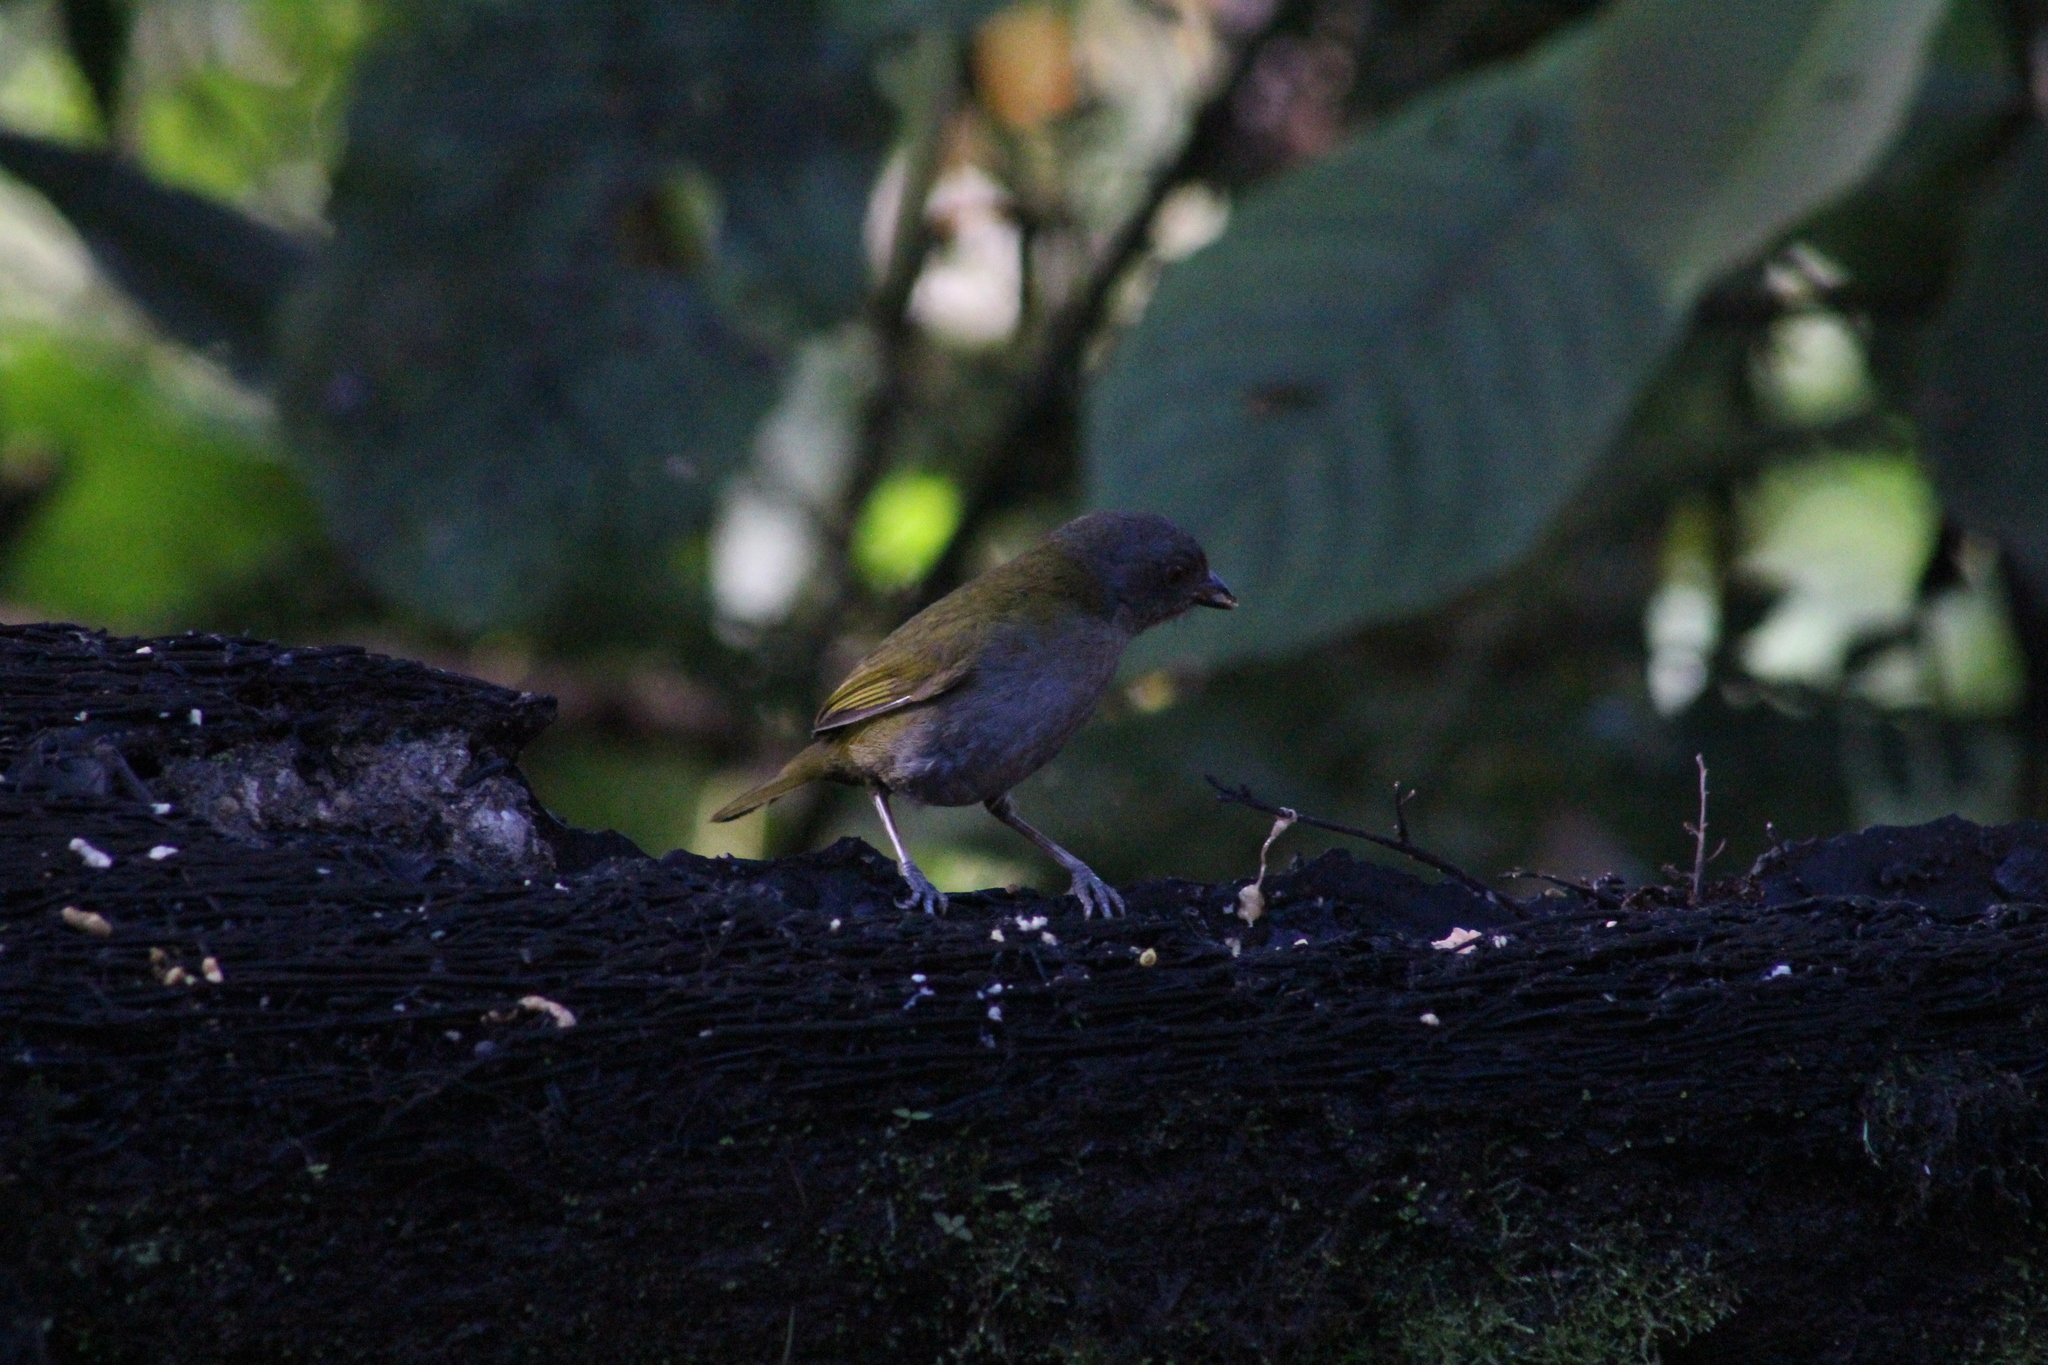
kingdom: Animalia
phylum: Chordata
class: Aves
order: Passeriformes
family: Passerellidae
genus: Chlorospingus
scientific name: Chlorospingus semifuscus
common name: Dusky bush-tanager
